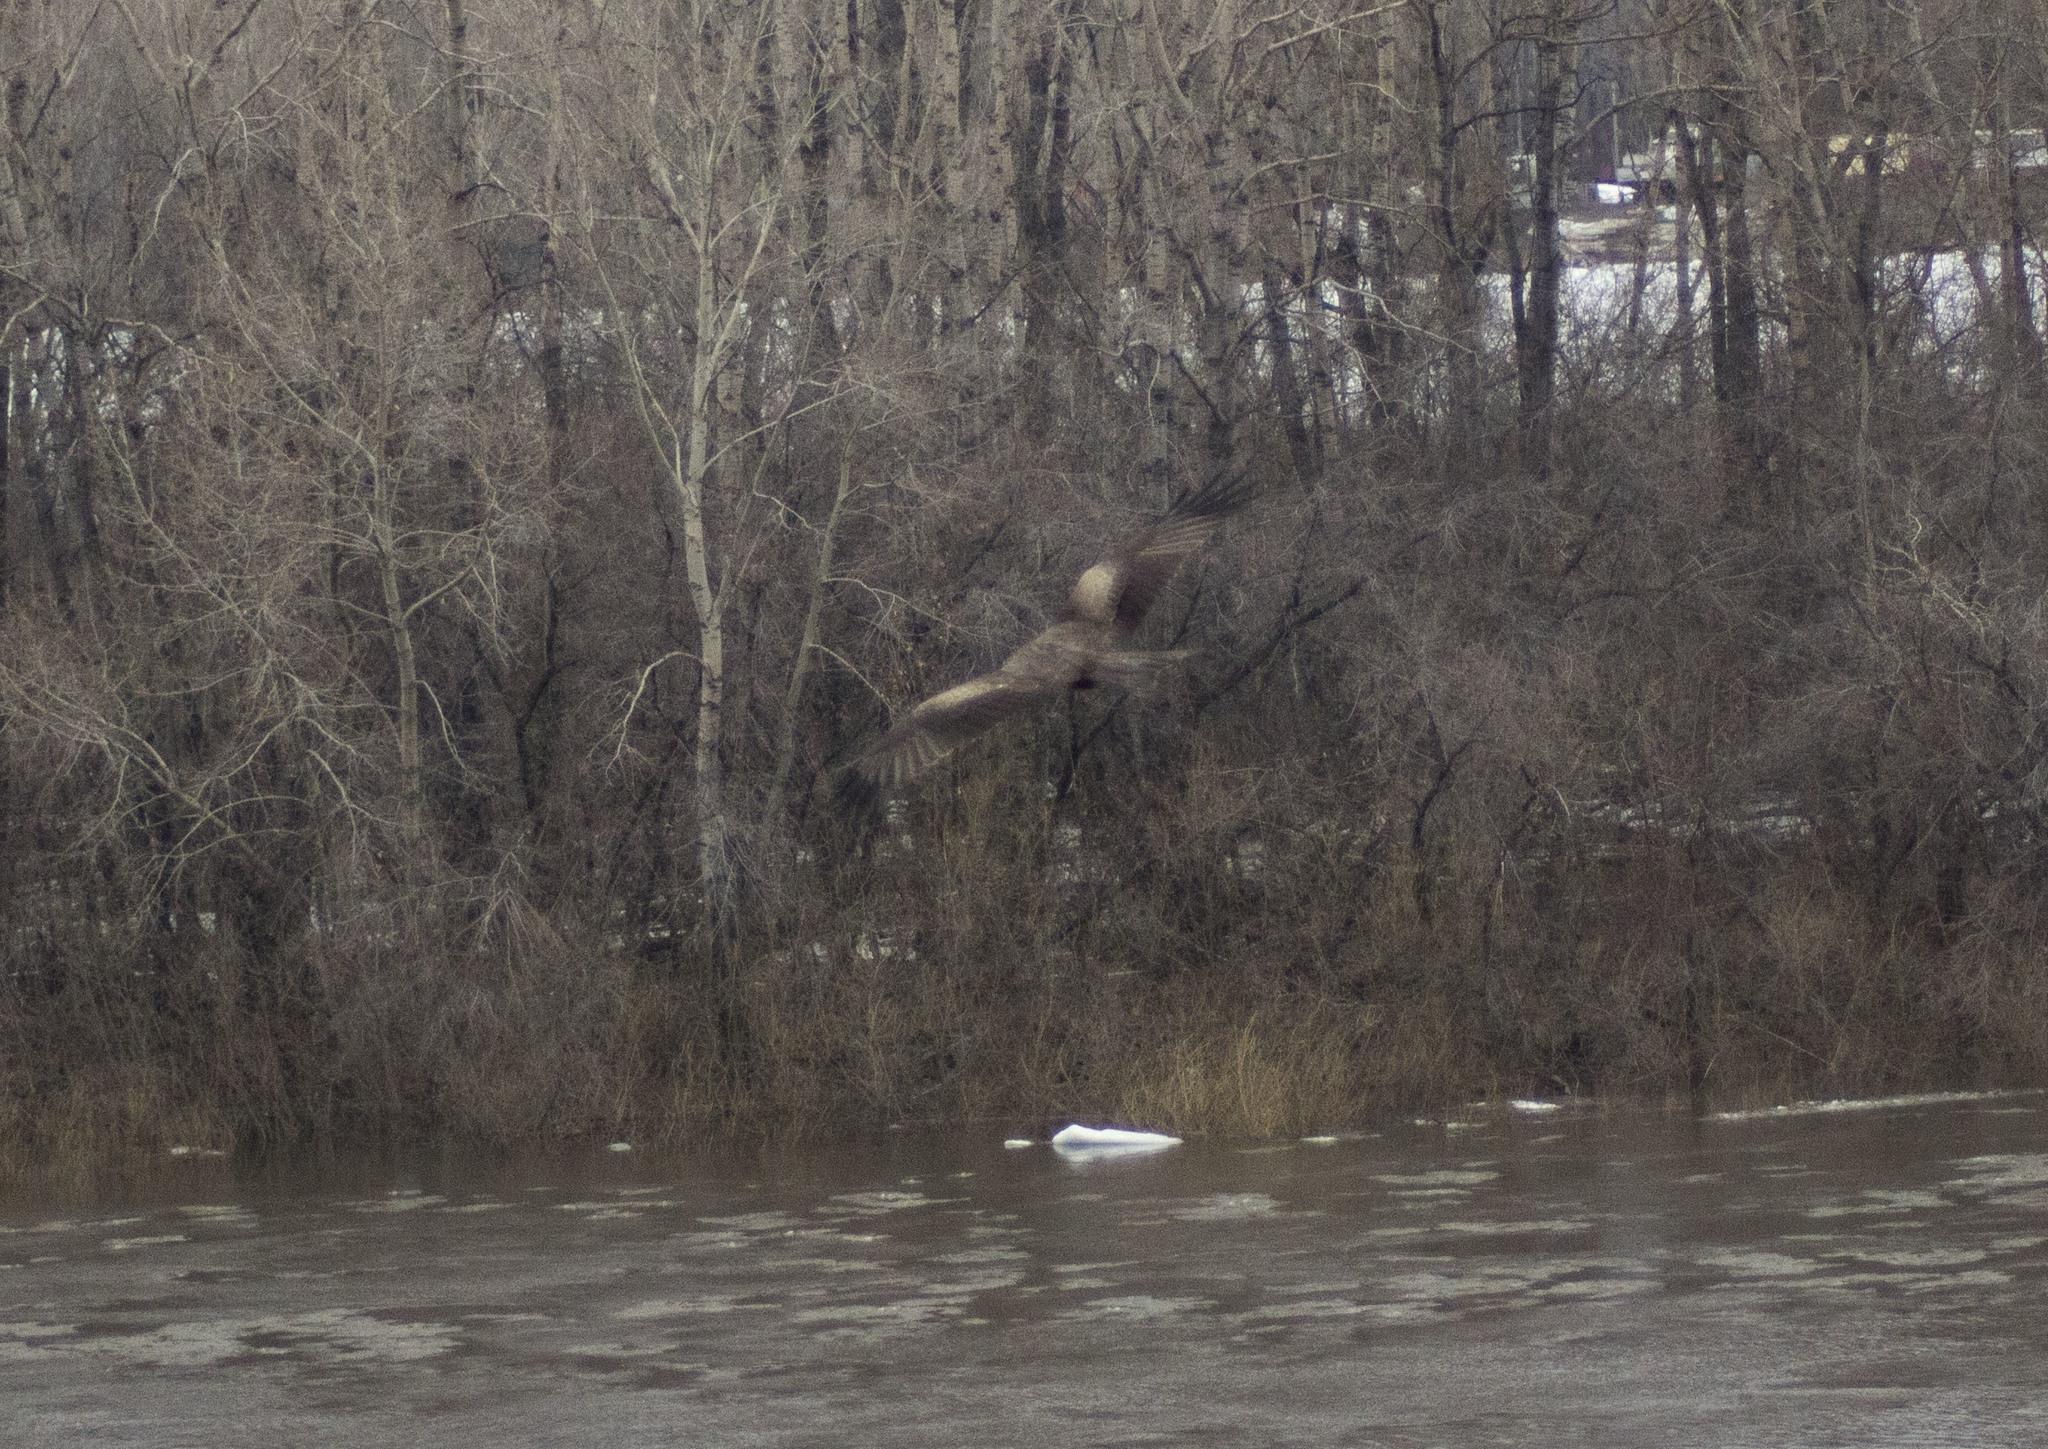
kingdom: Animalia
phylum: Chordata
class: Aves
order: Accipitriformes
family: Accipitridae
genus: Milvus
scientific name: Milvus migrans
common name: Black kite
